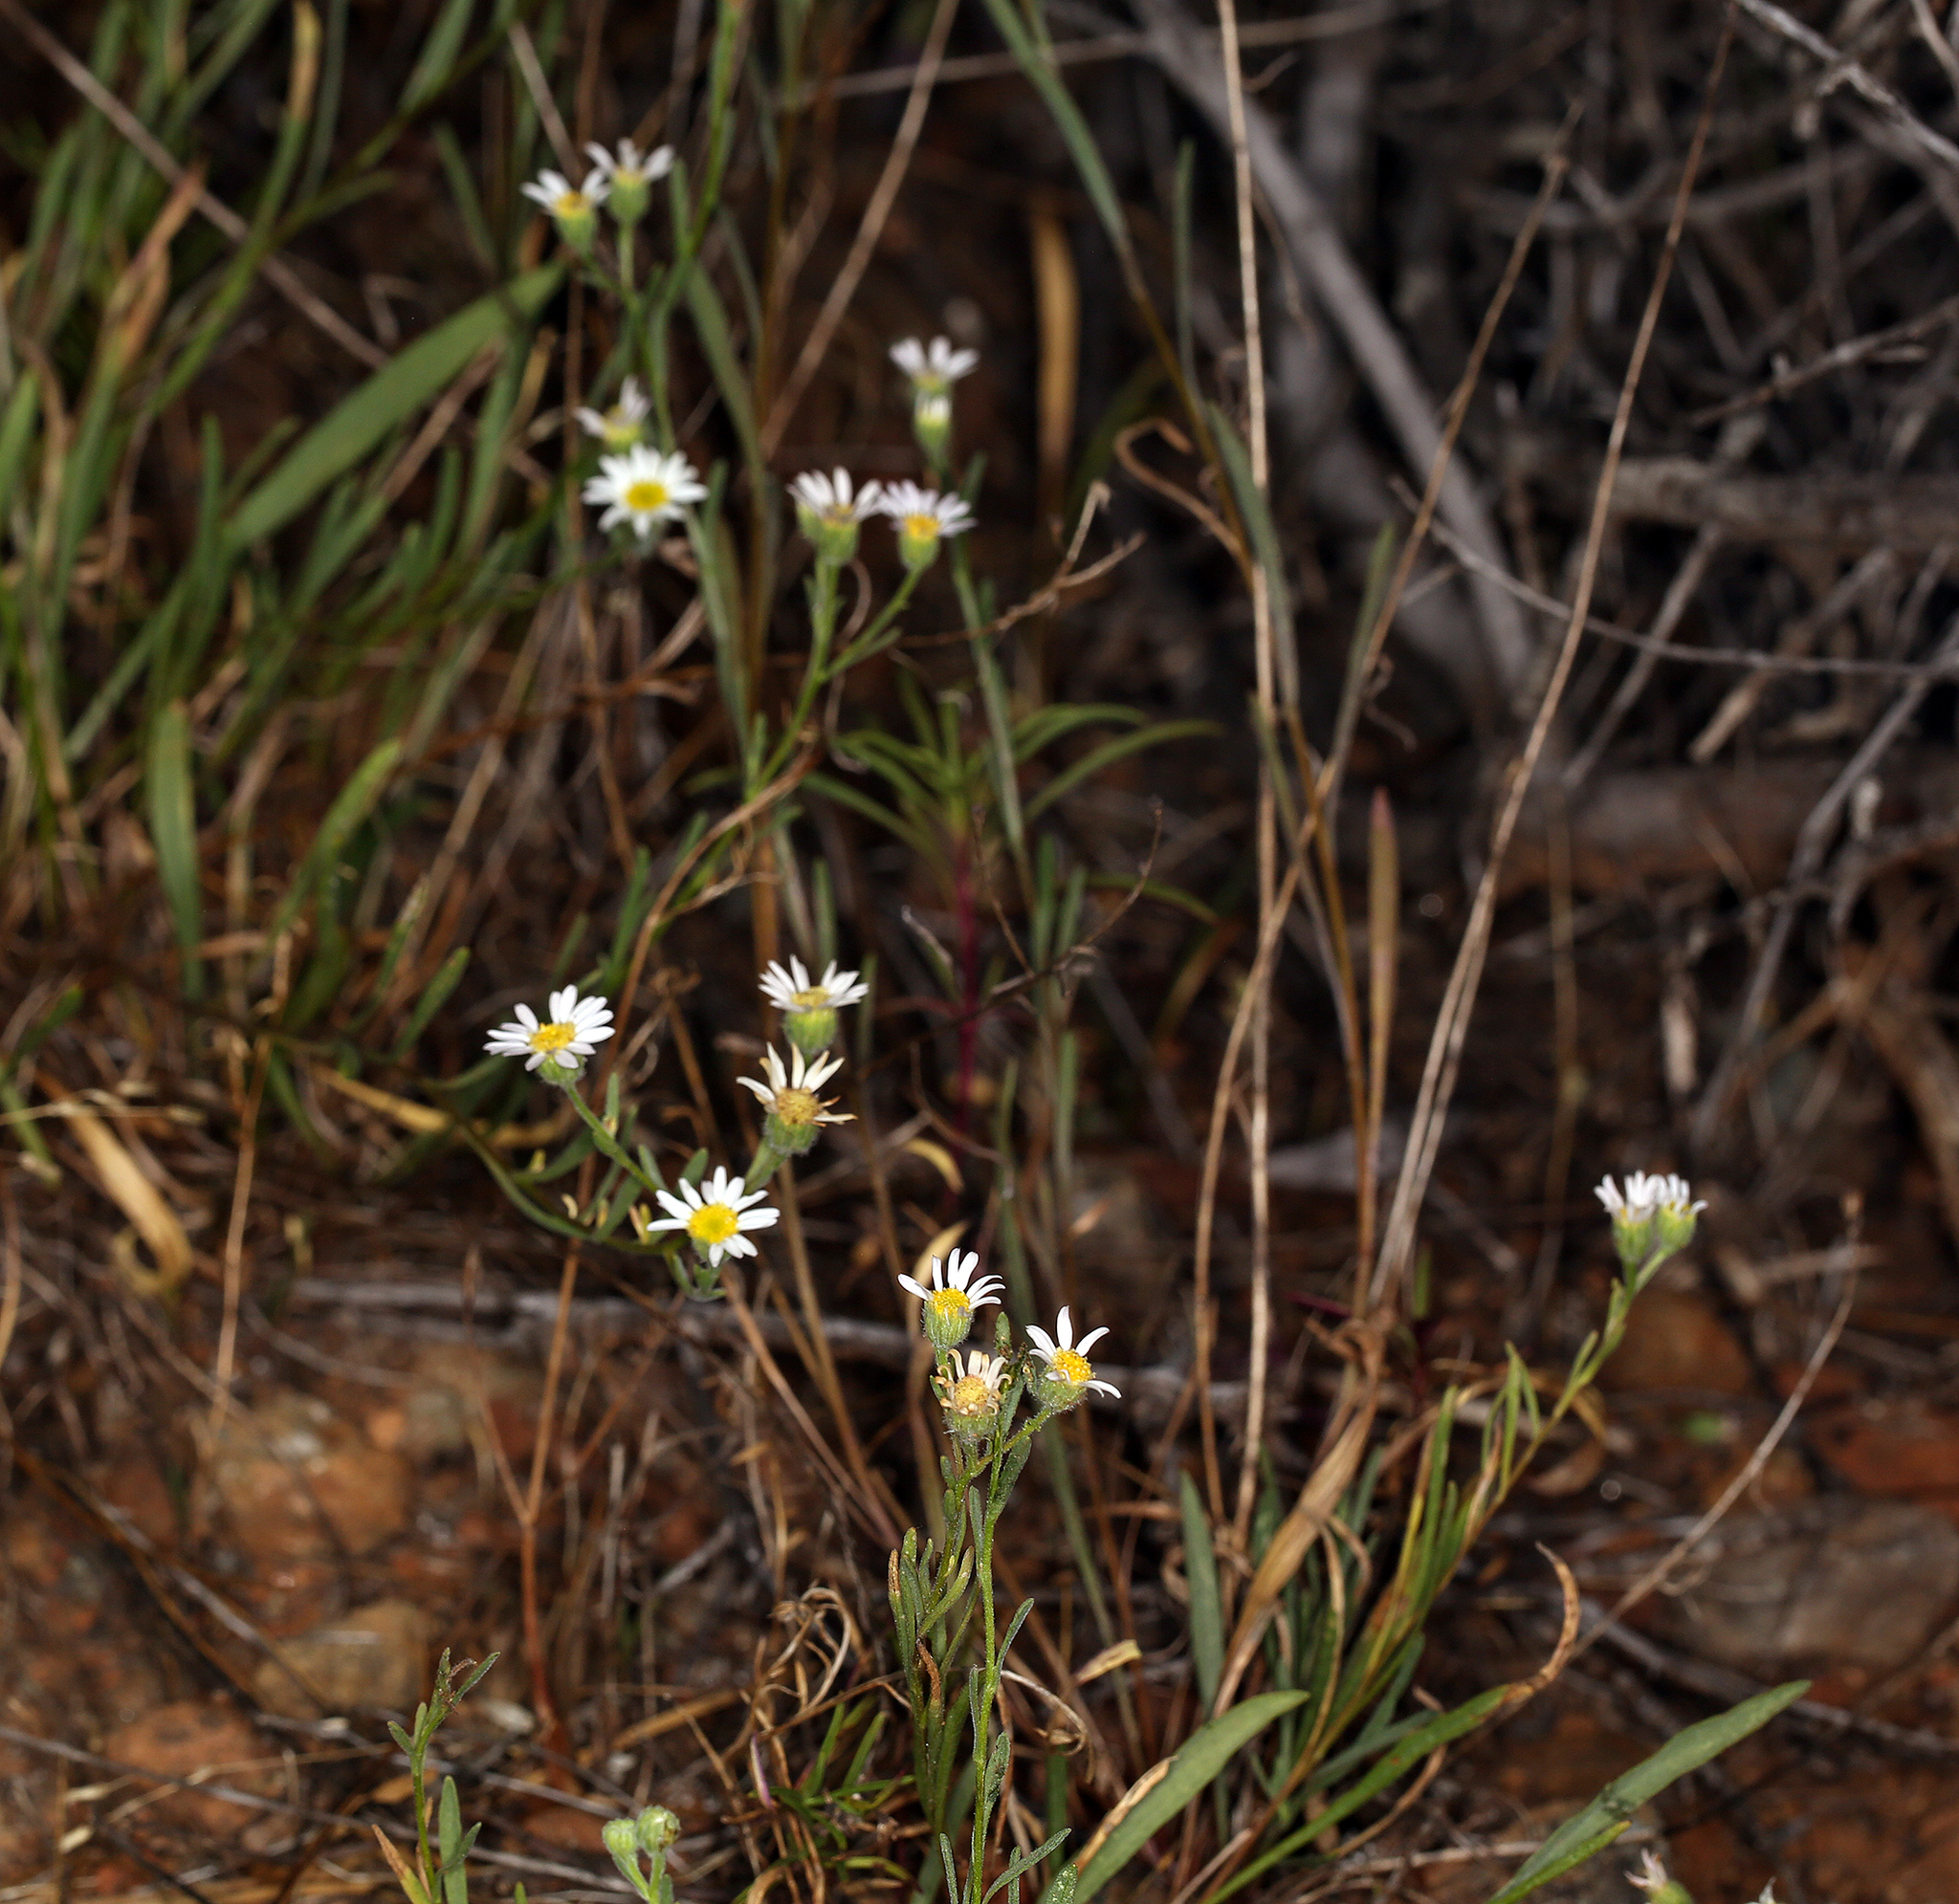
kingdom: Plantae
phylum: Tracheophyta
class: Magnoliopsida
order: Asterales
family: Asteraceae
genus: Erigeron
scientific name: Erigeron lassenianus
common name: Mt. lassen fleabane
